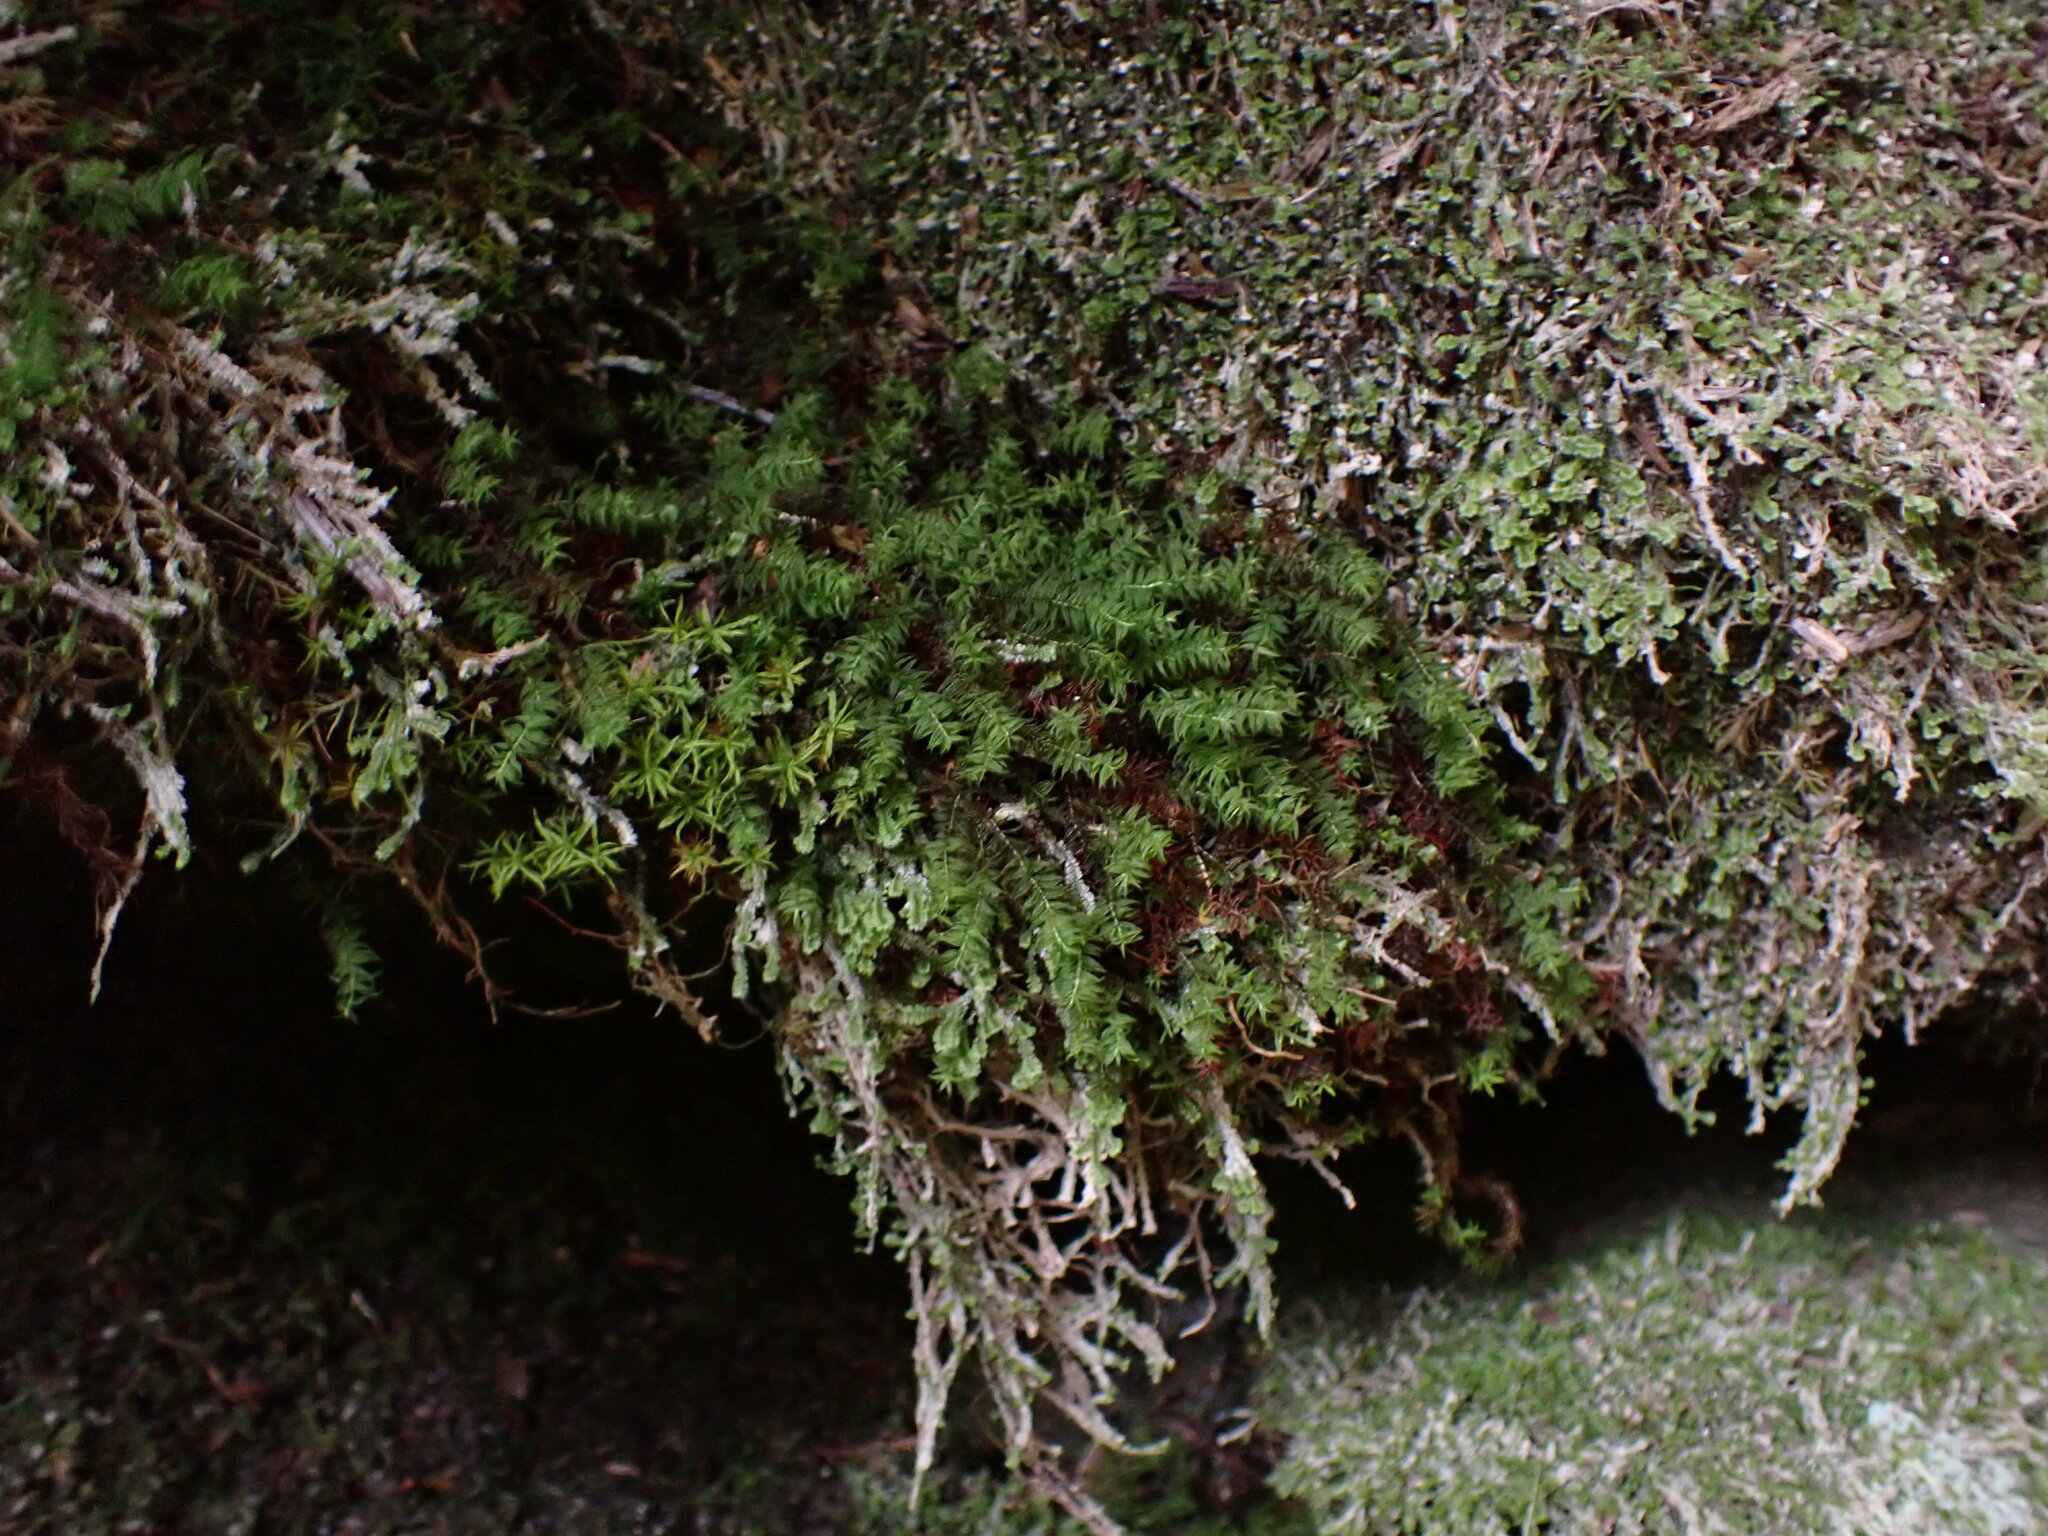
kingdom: Plantae
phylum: Bryophyta
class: Polytrichopsida
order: Polytrichales
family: Polytrichaceae
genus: Bartramiopsis
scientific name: Bartramiopsis lescurii
